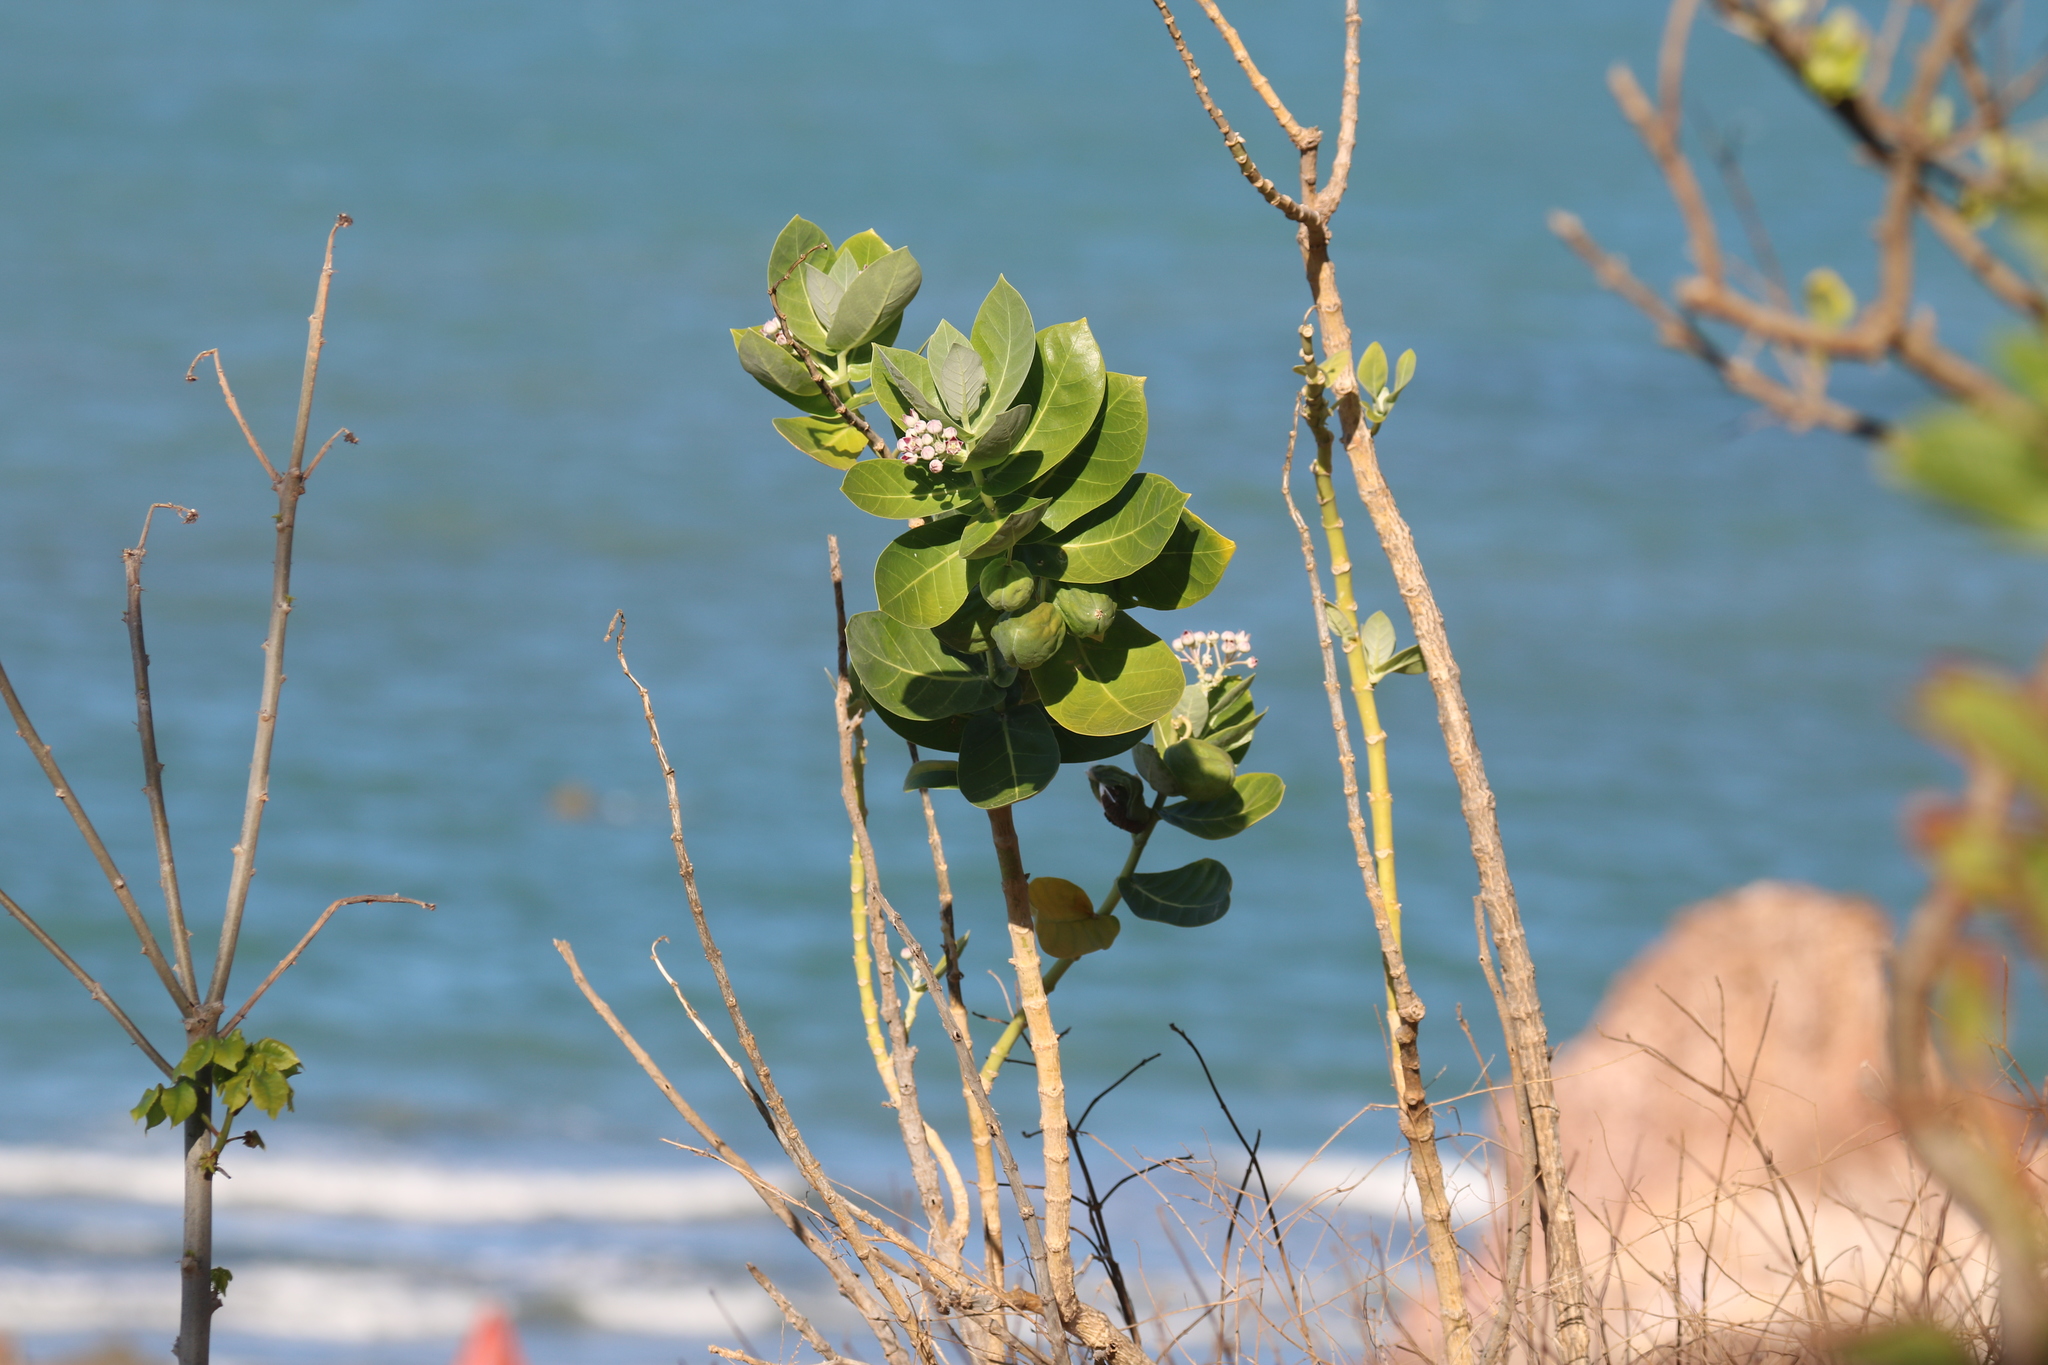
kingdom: Plantae
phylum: Tracheophyta
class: Magnoliopsida
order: Gentianales
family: Apocynaceae
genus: Calotropis
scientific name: Calotropis procera
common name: Roostertree
